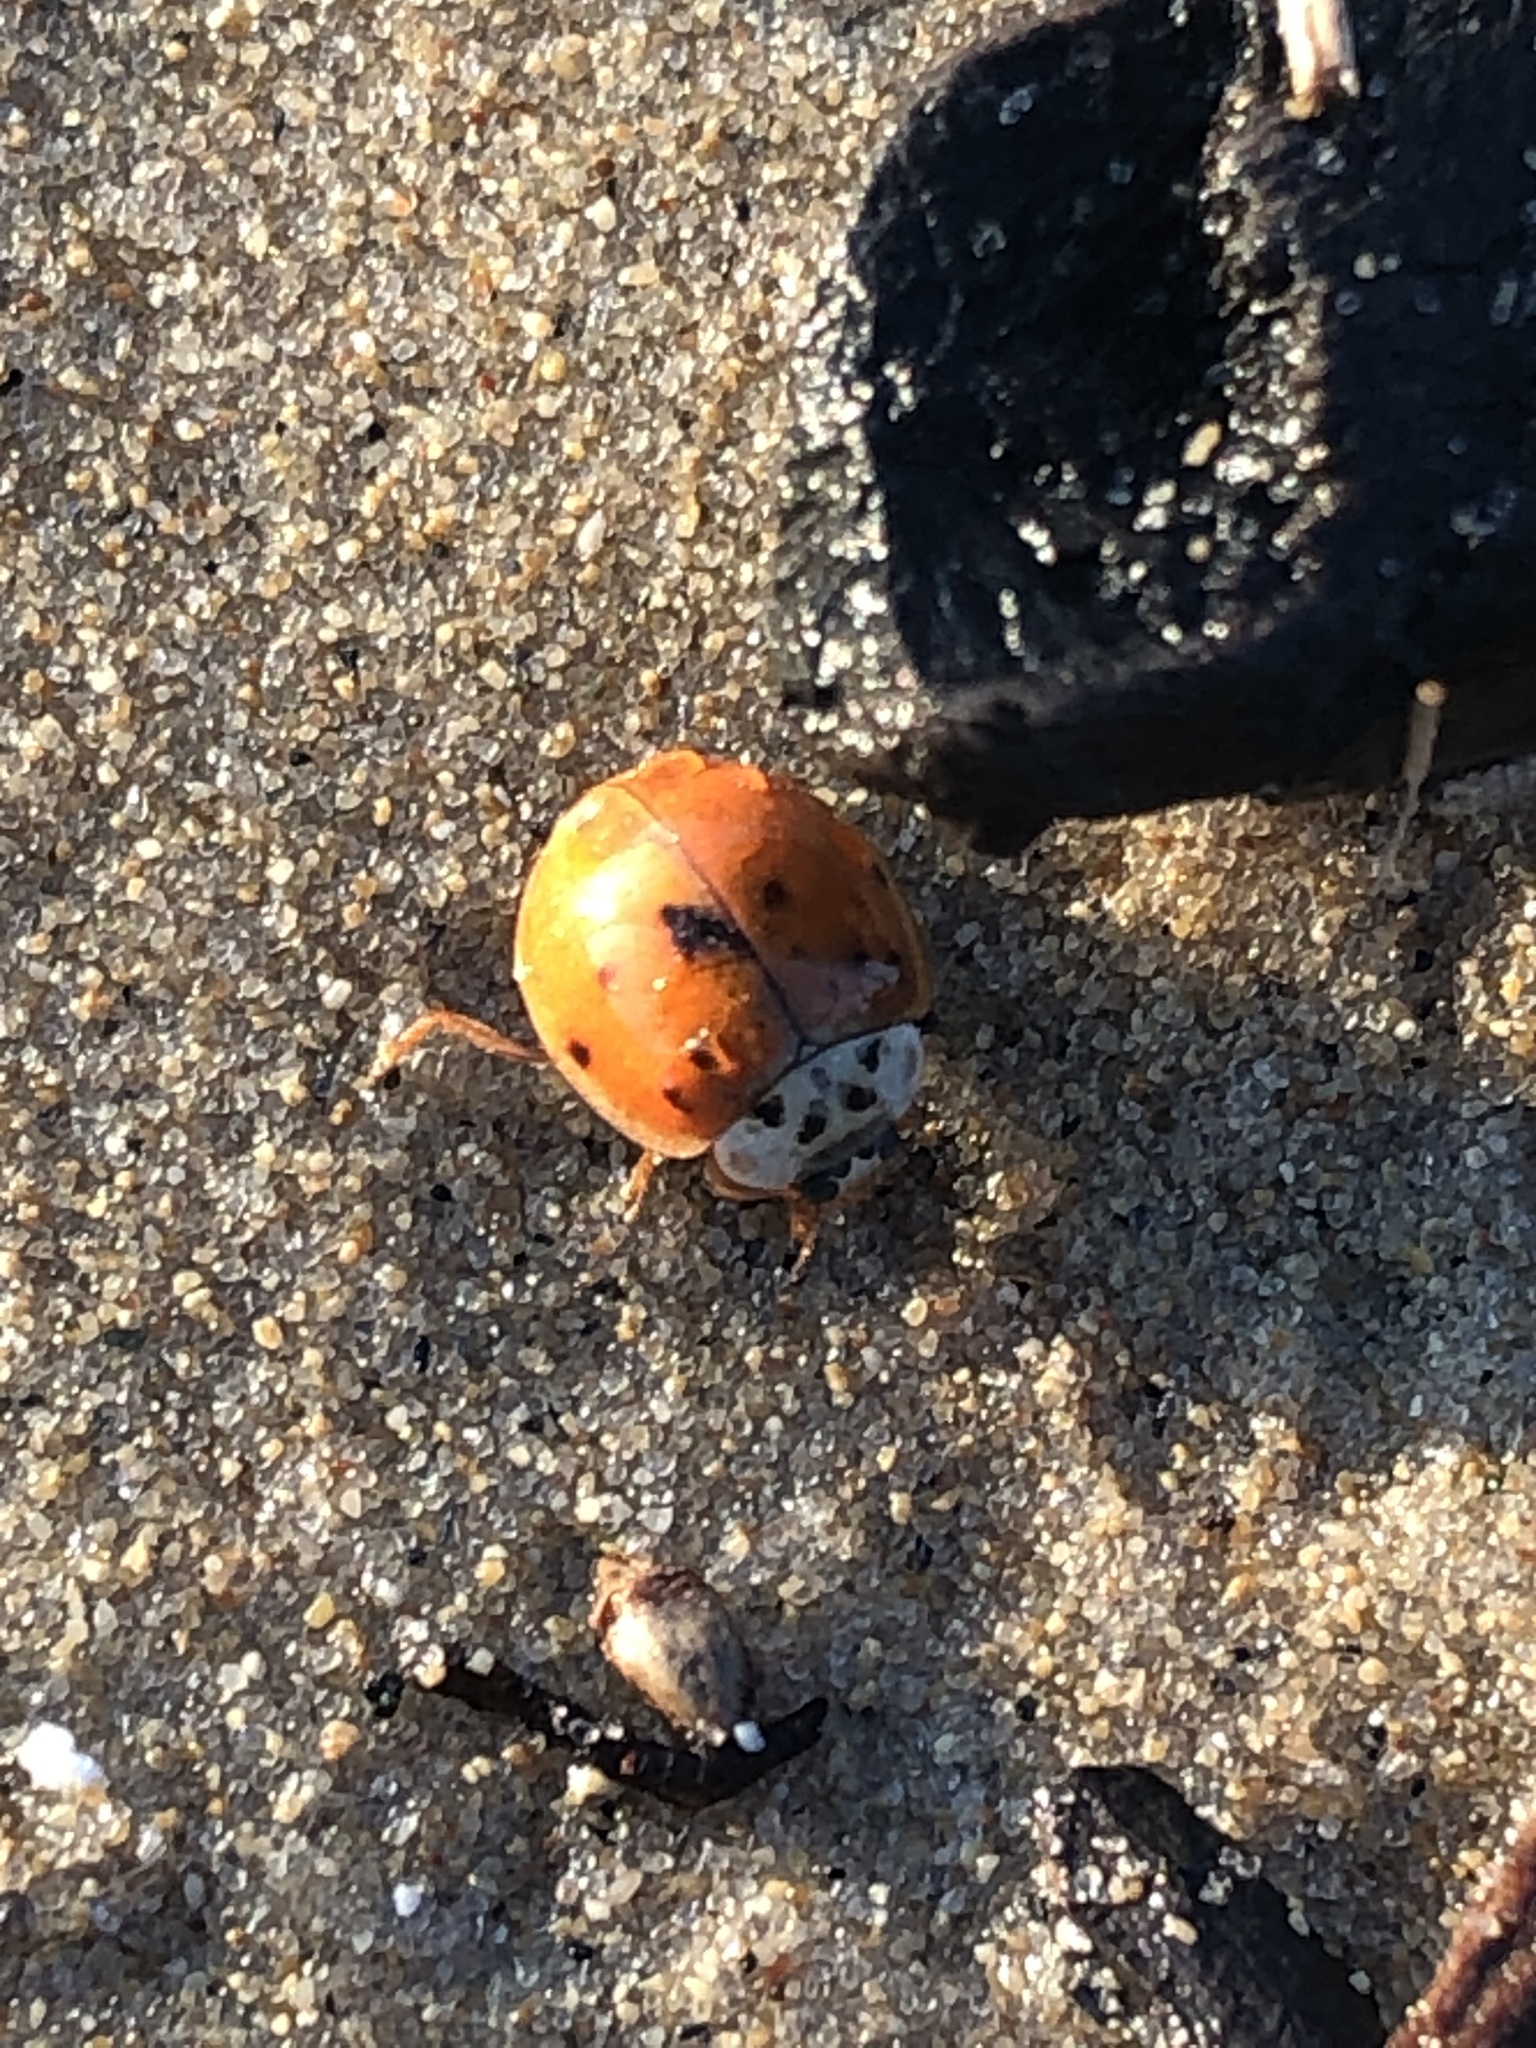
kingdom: Animalia
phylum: Arthropoda
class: Insecta
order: Coleoptera
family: Coccinellidae
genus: Harmonia
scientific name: Harmonia axyridis
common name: Harlequin ladybird
